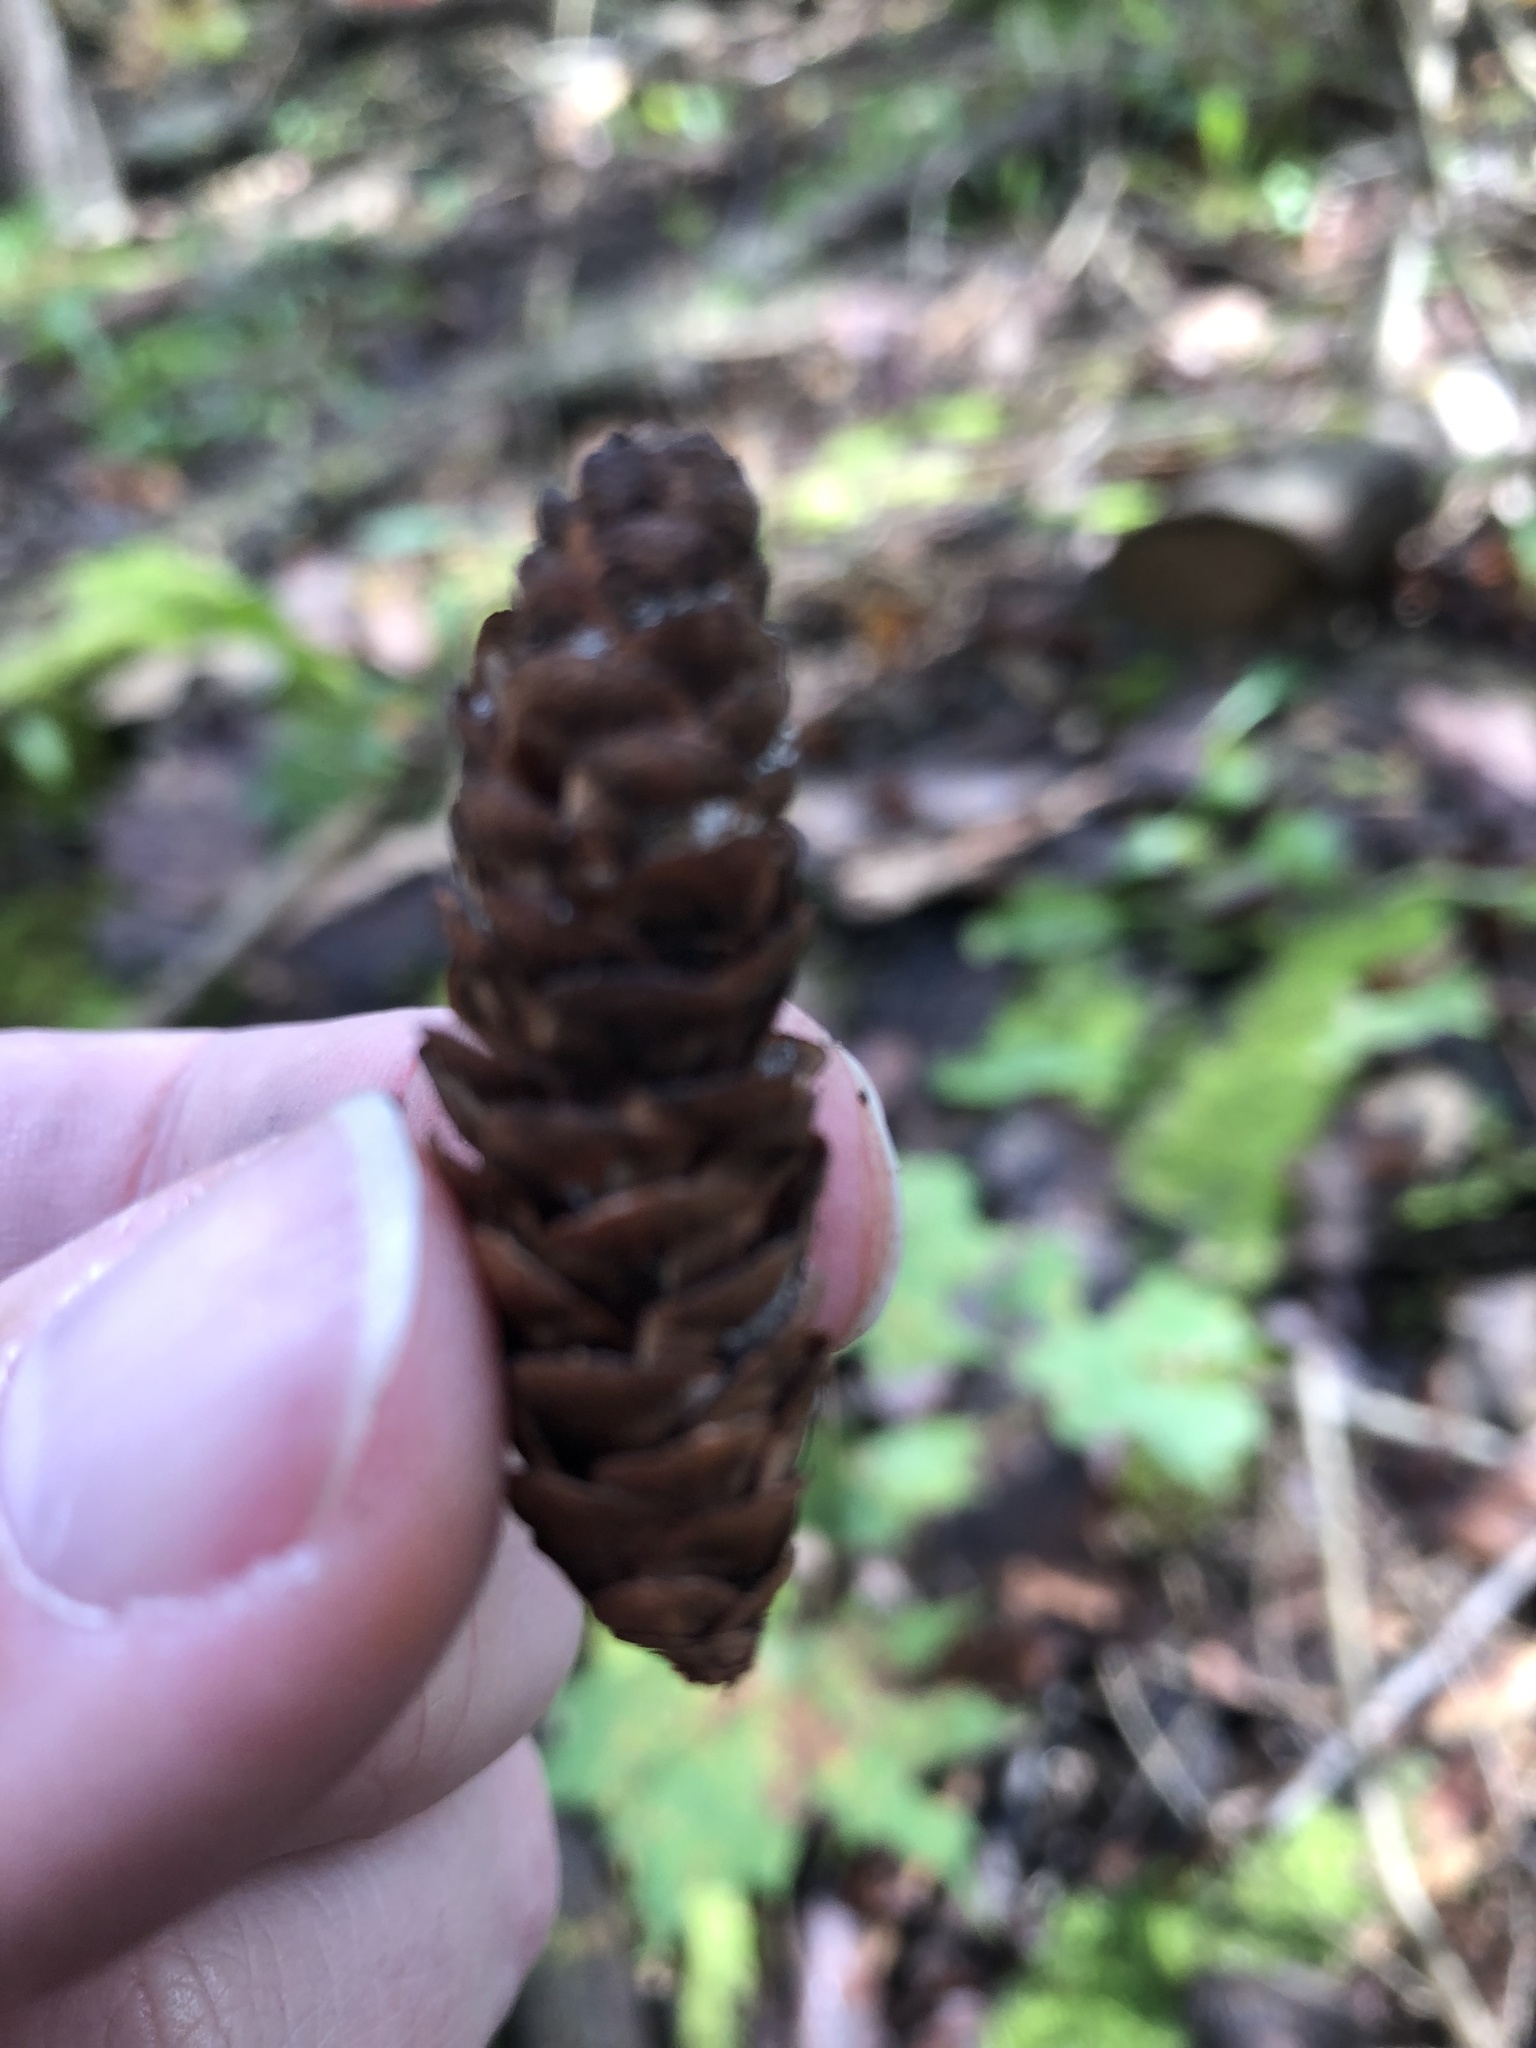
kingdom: Plantae
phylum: Tracheophyta
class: Pinopsida
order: Pinales
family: Pinaceae
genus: Picea
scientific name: Picea glauca
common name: White spruce
